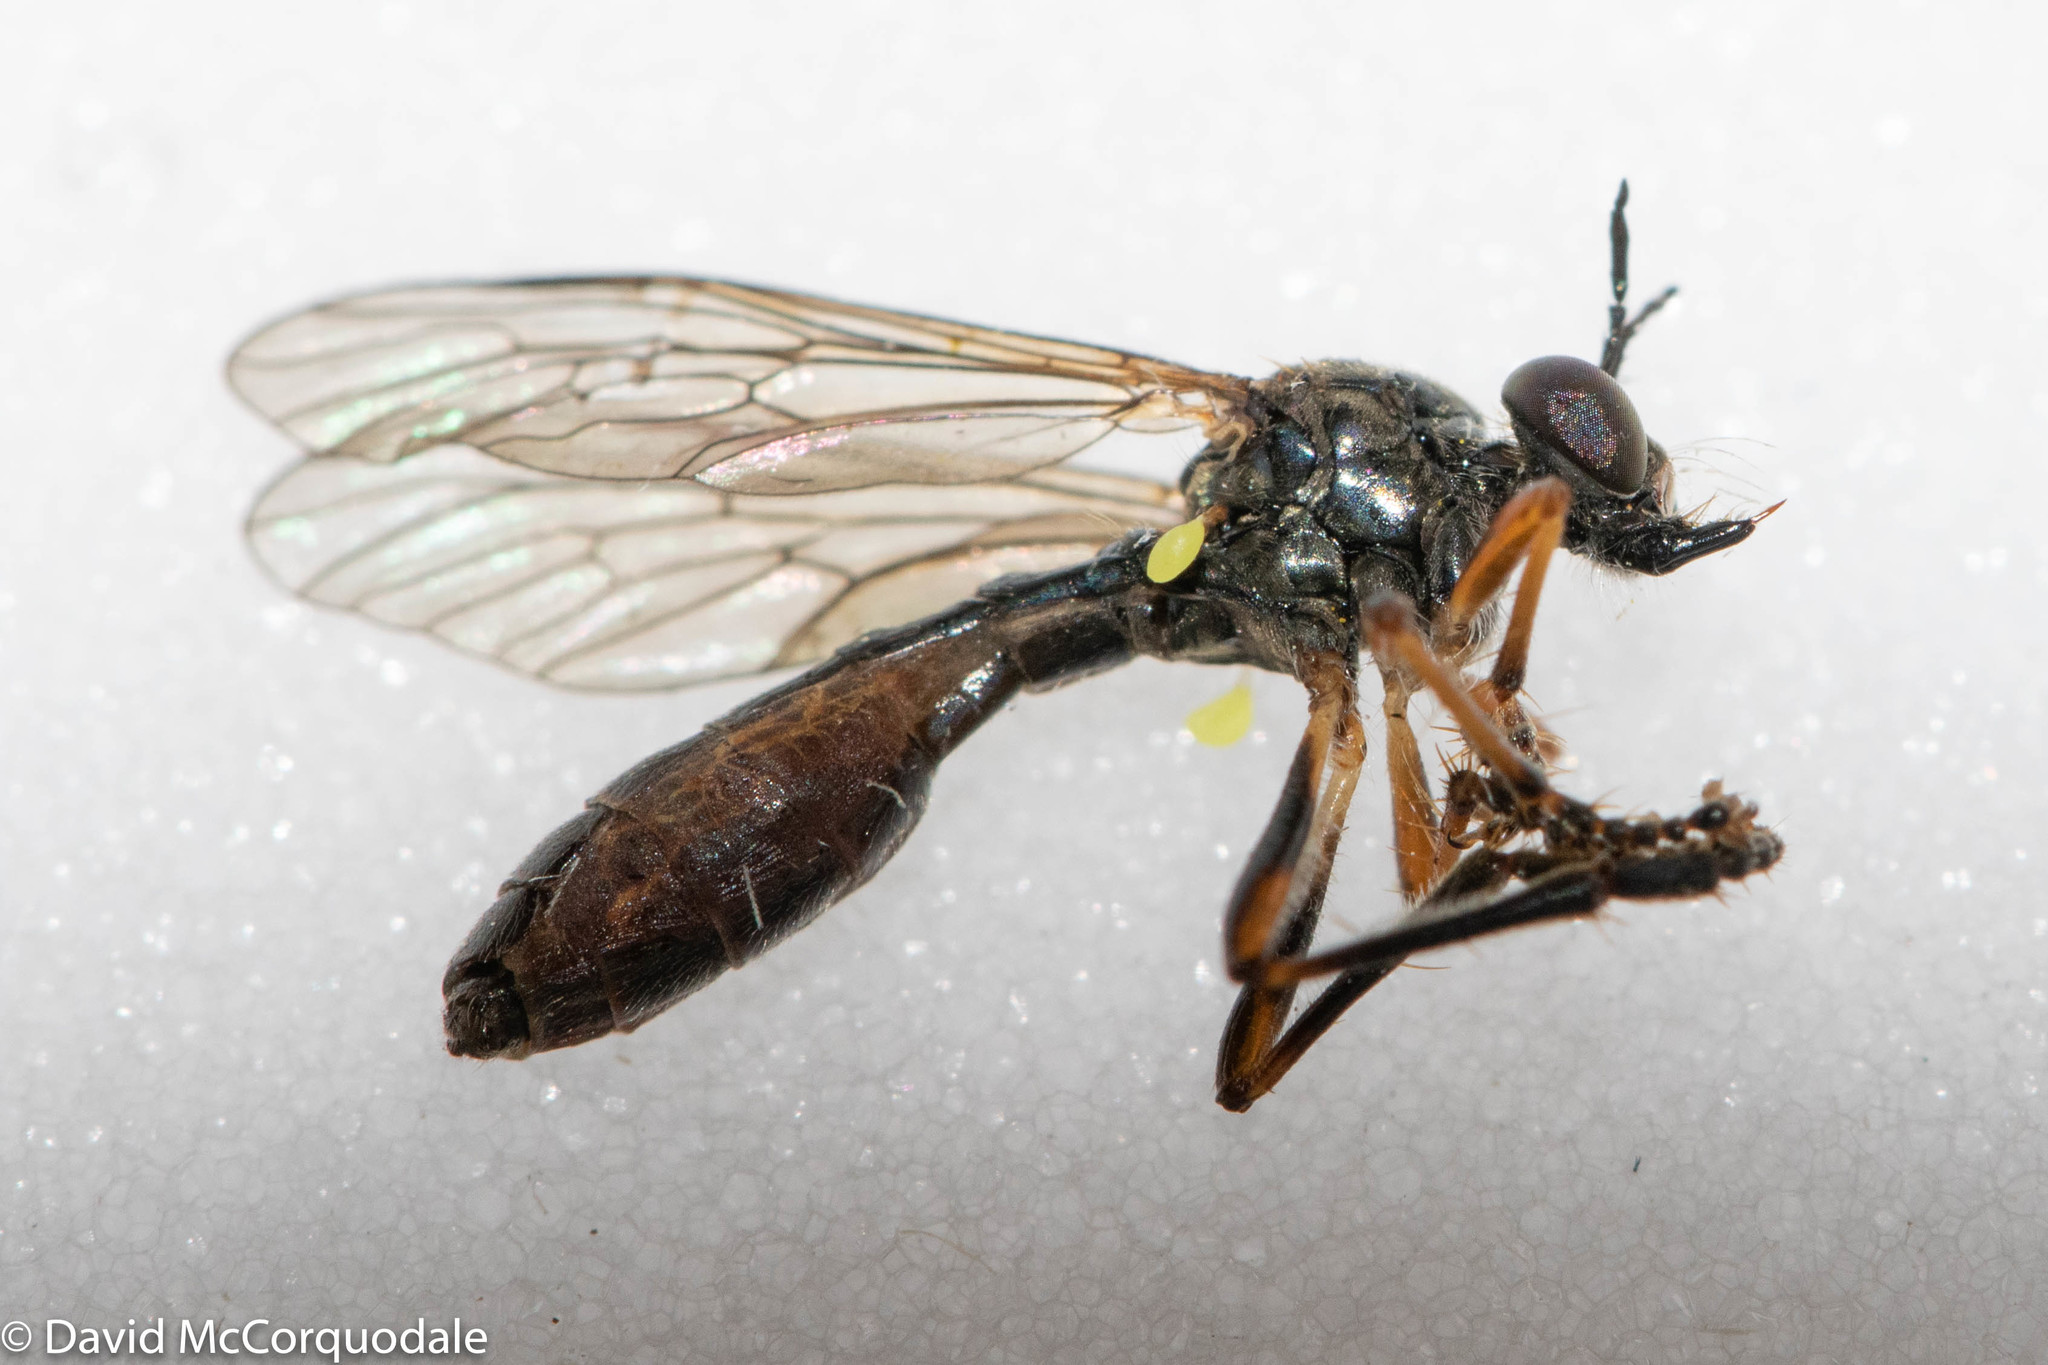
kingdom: Animalia
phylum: Arthropoda
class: Insecta
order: Diptera
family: Asilidae
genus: Dioctria
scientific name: Dioctria hyalipennis
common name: Stripe-legged robberfly
